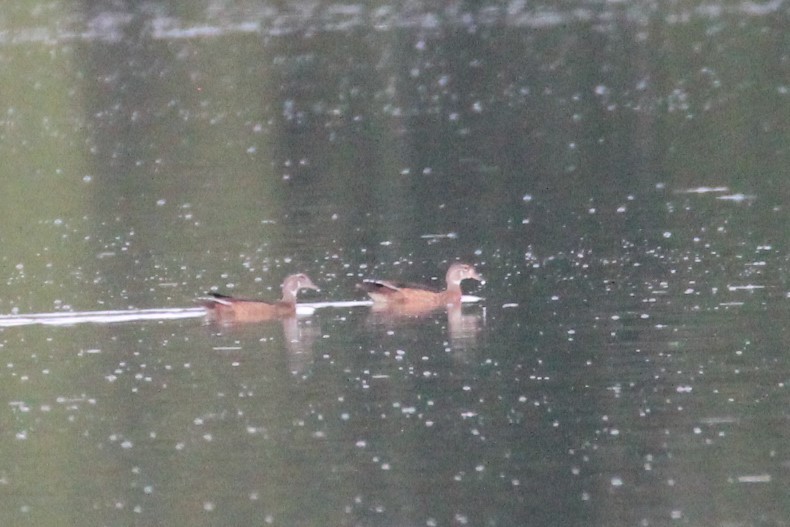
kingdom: Animalia
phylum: Chordata
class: Aves
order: Anseriformes
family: Anatidae
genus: Aix
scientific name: Aix sponsa
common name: Wood duck
